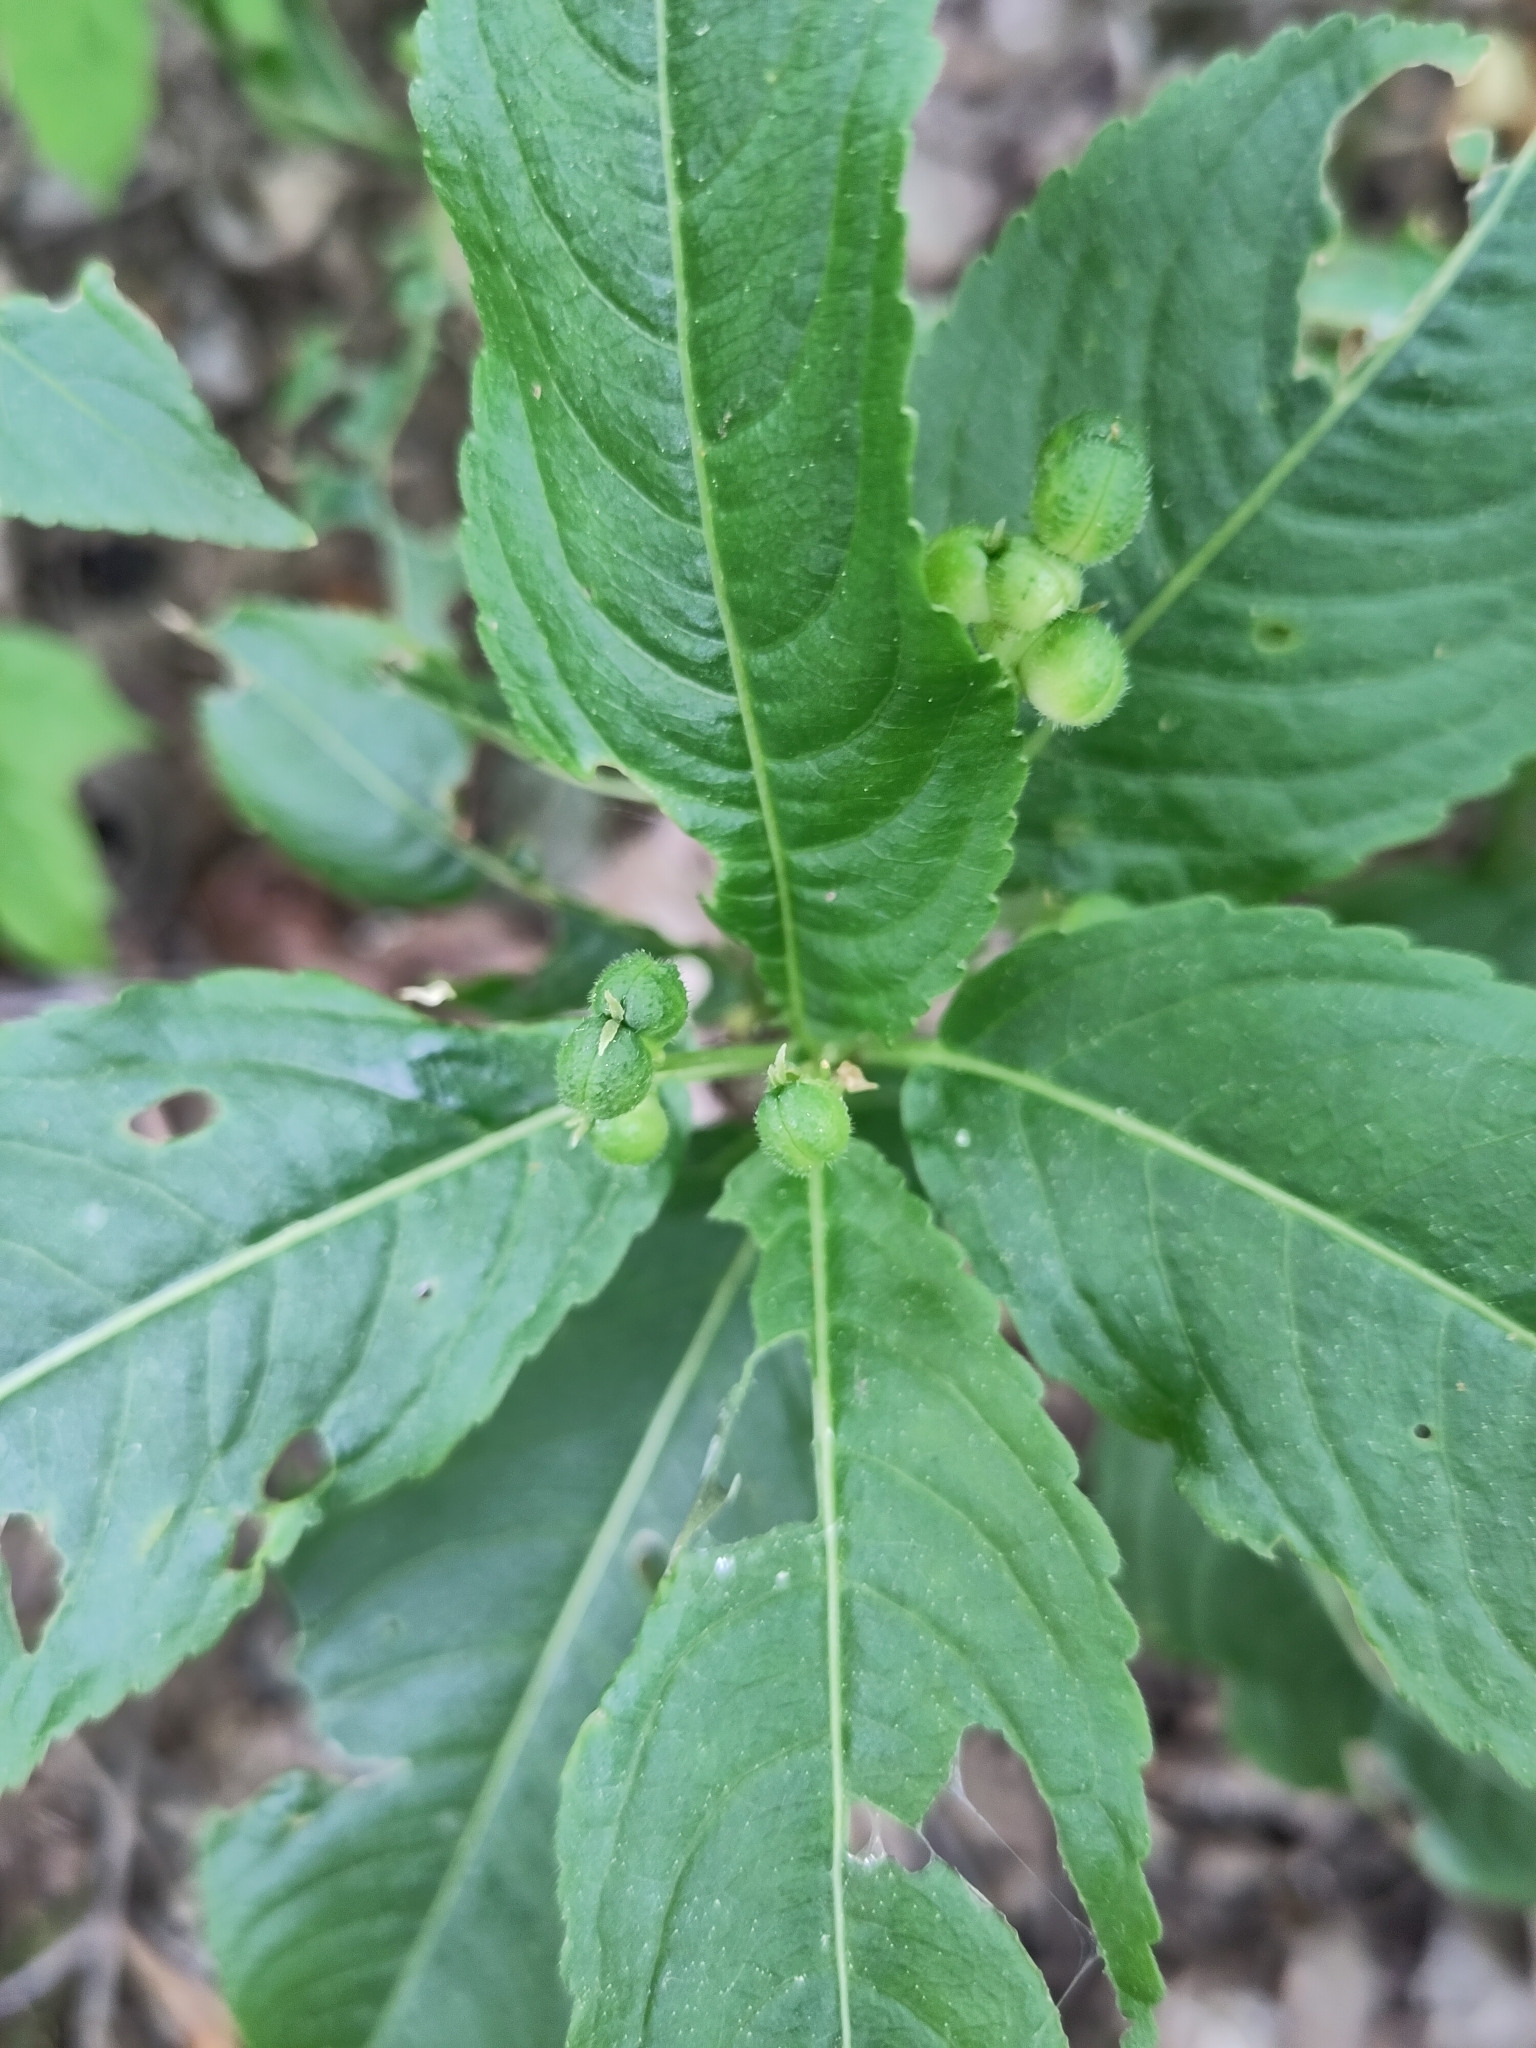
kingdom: Plantae
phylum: Tracheophyta
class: Magnoliopsida
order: Malpighiales
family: Euphorbiaceae
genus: Mercurialis
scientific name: Mercurialis perennis
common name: Dog mercury
